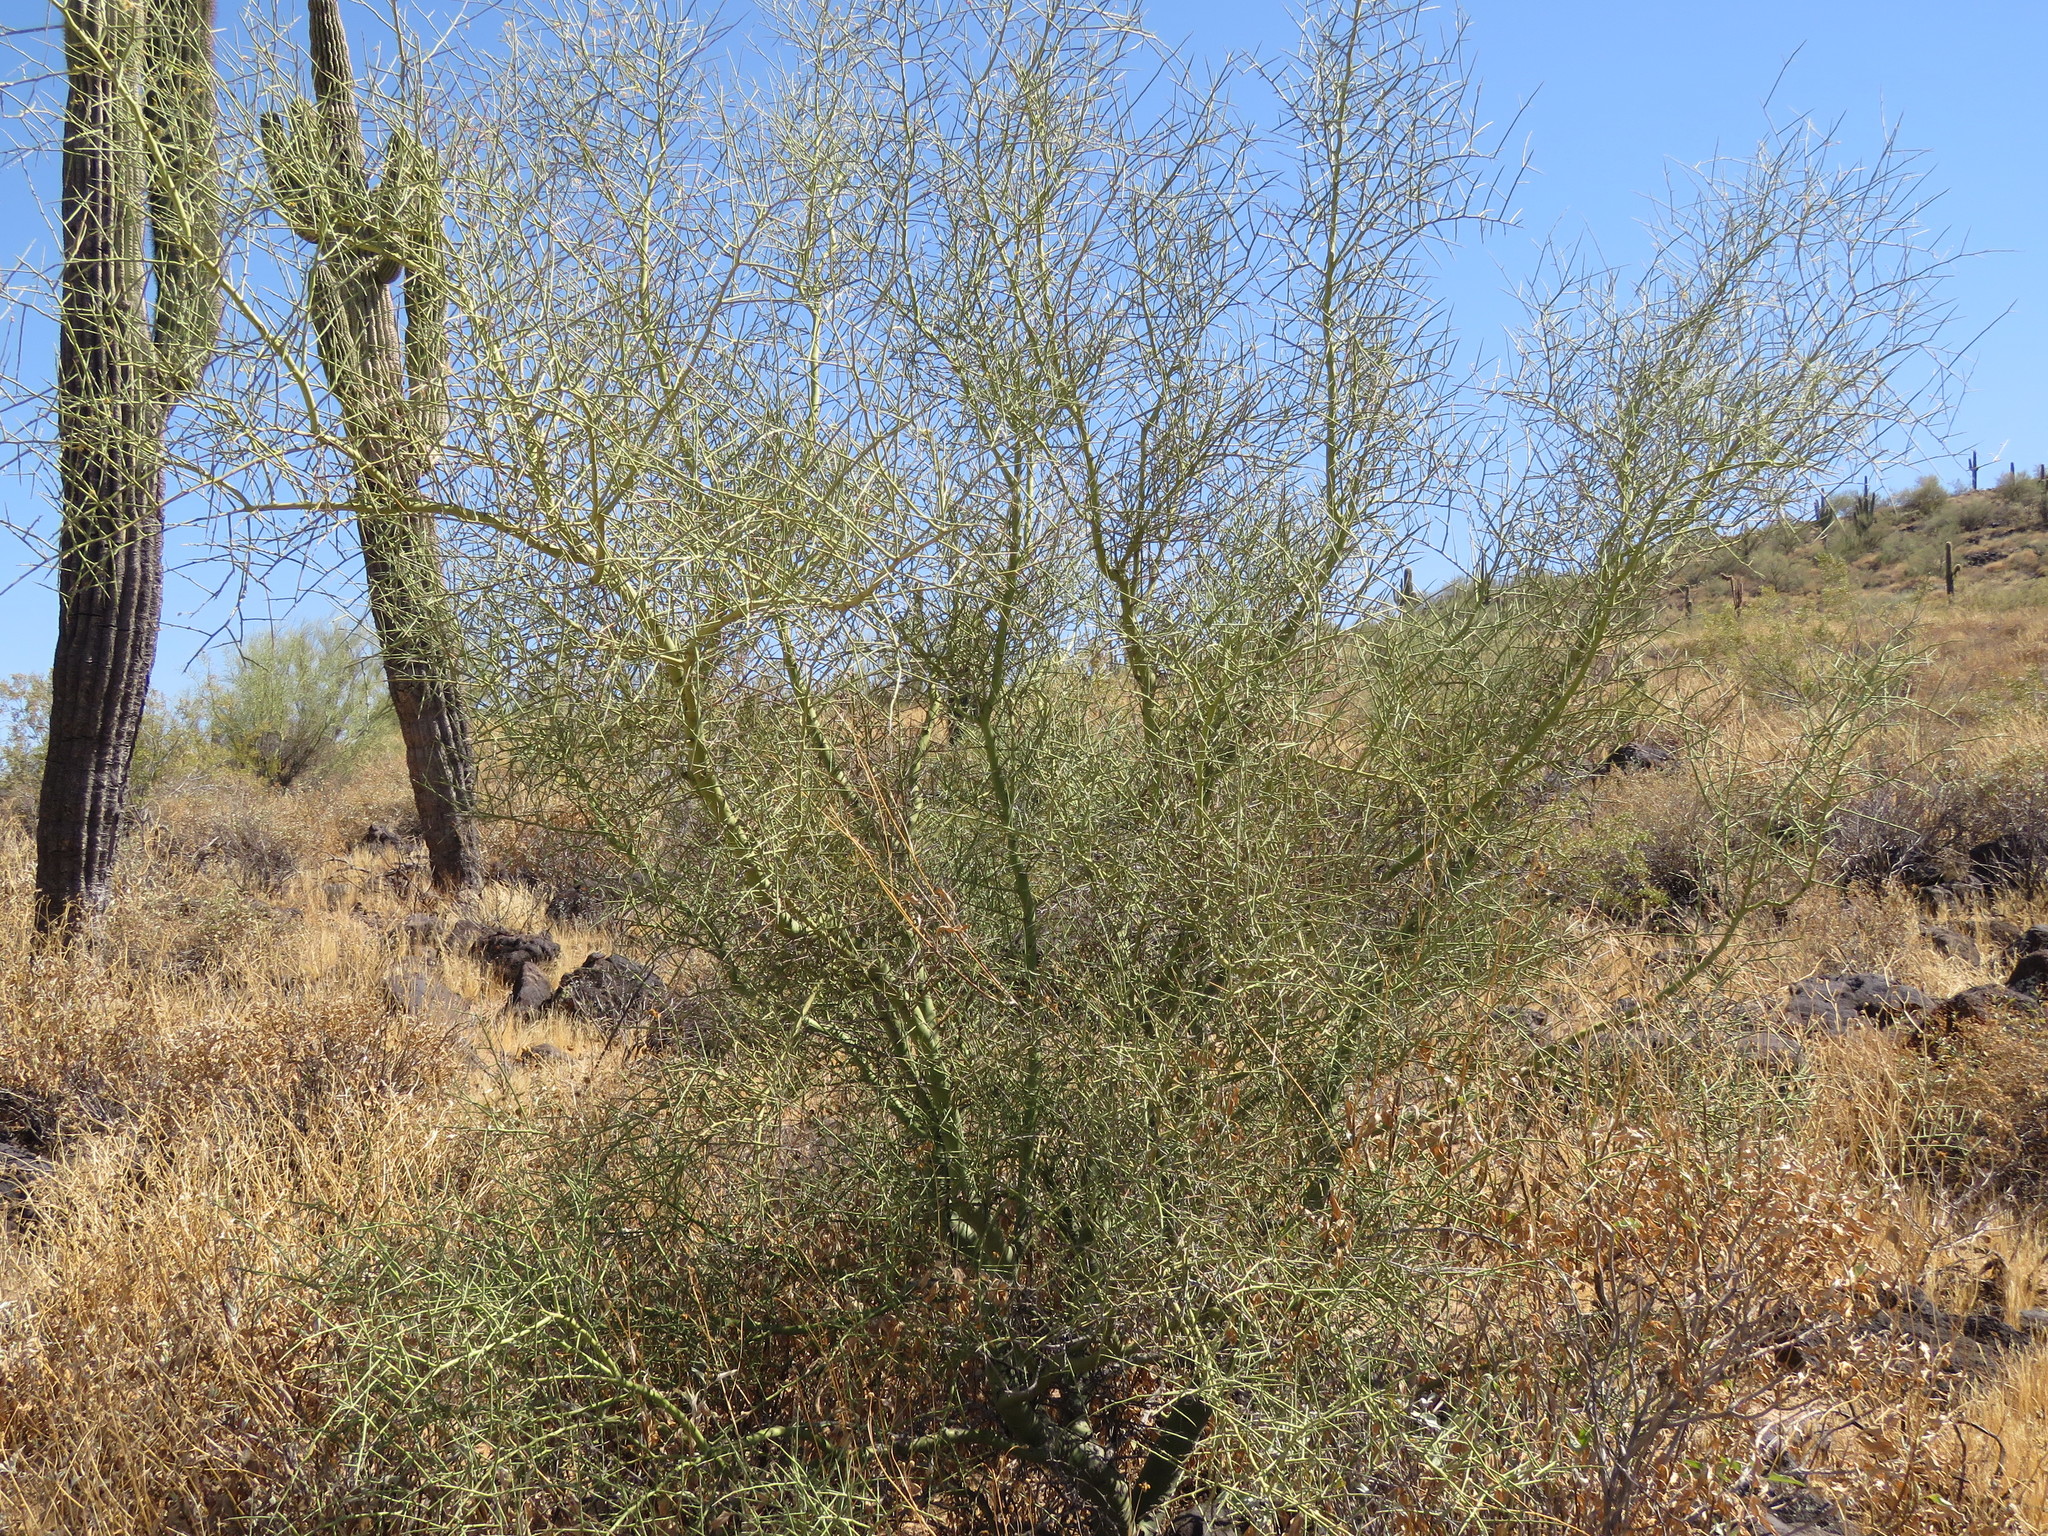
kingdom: Plantae
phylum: Tracheophyta
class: Magnoliopsida
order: Fabales
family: Fabaceae
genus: Parkinsonia
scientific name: Parkinsonia microphylla
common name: Yellow paloverde
